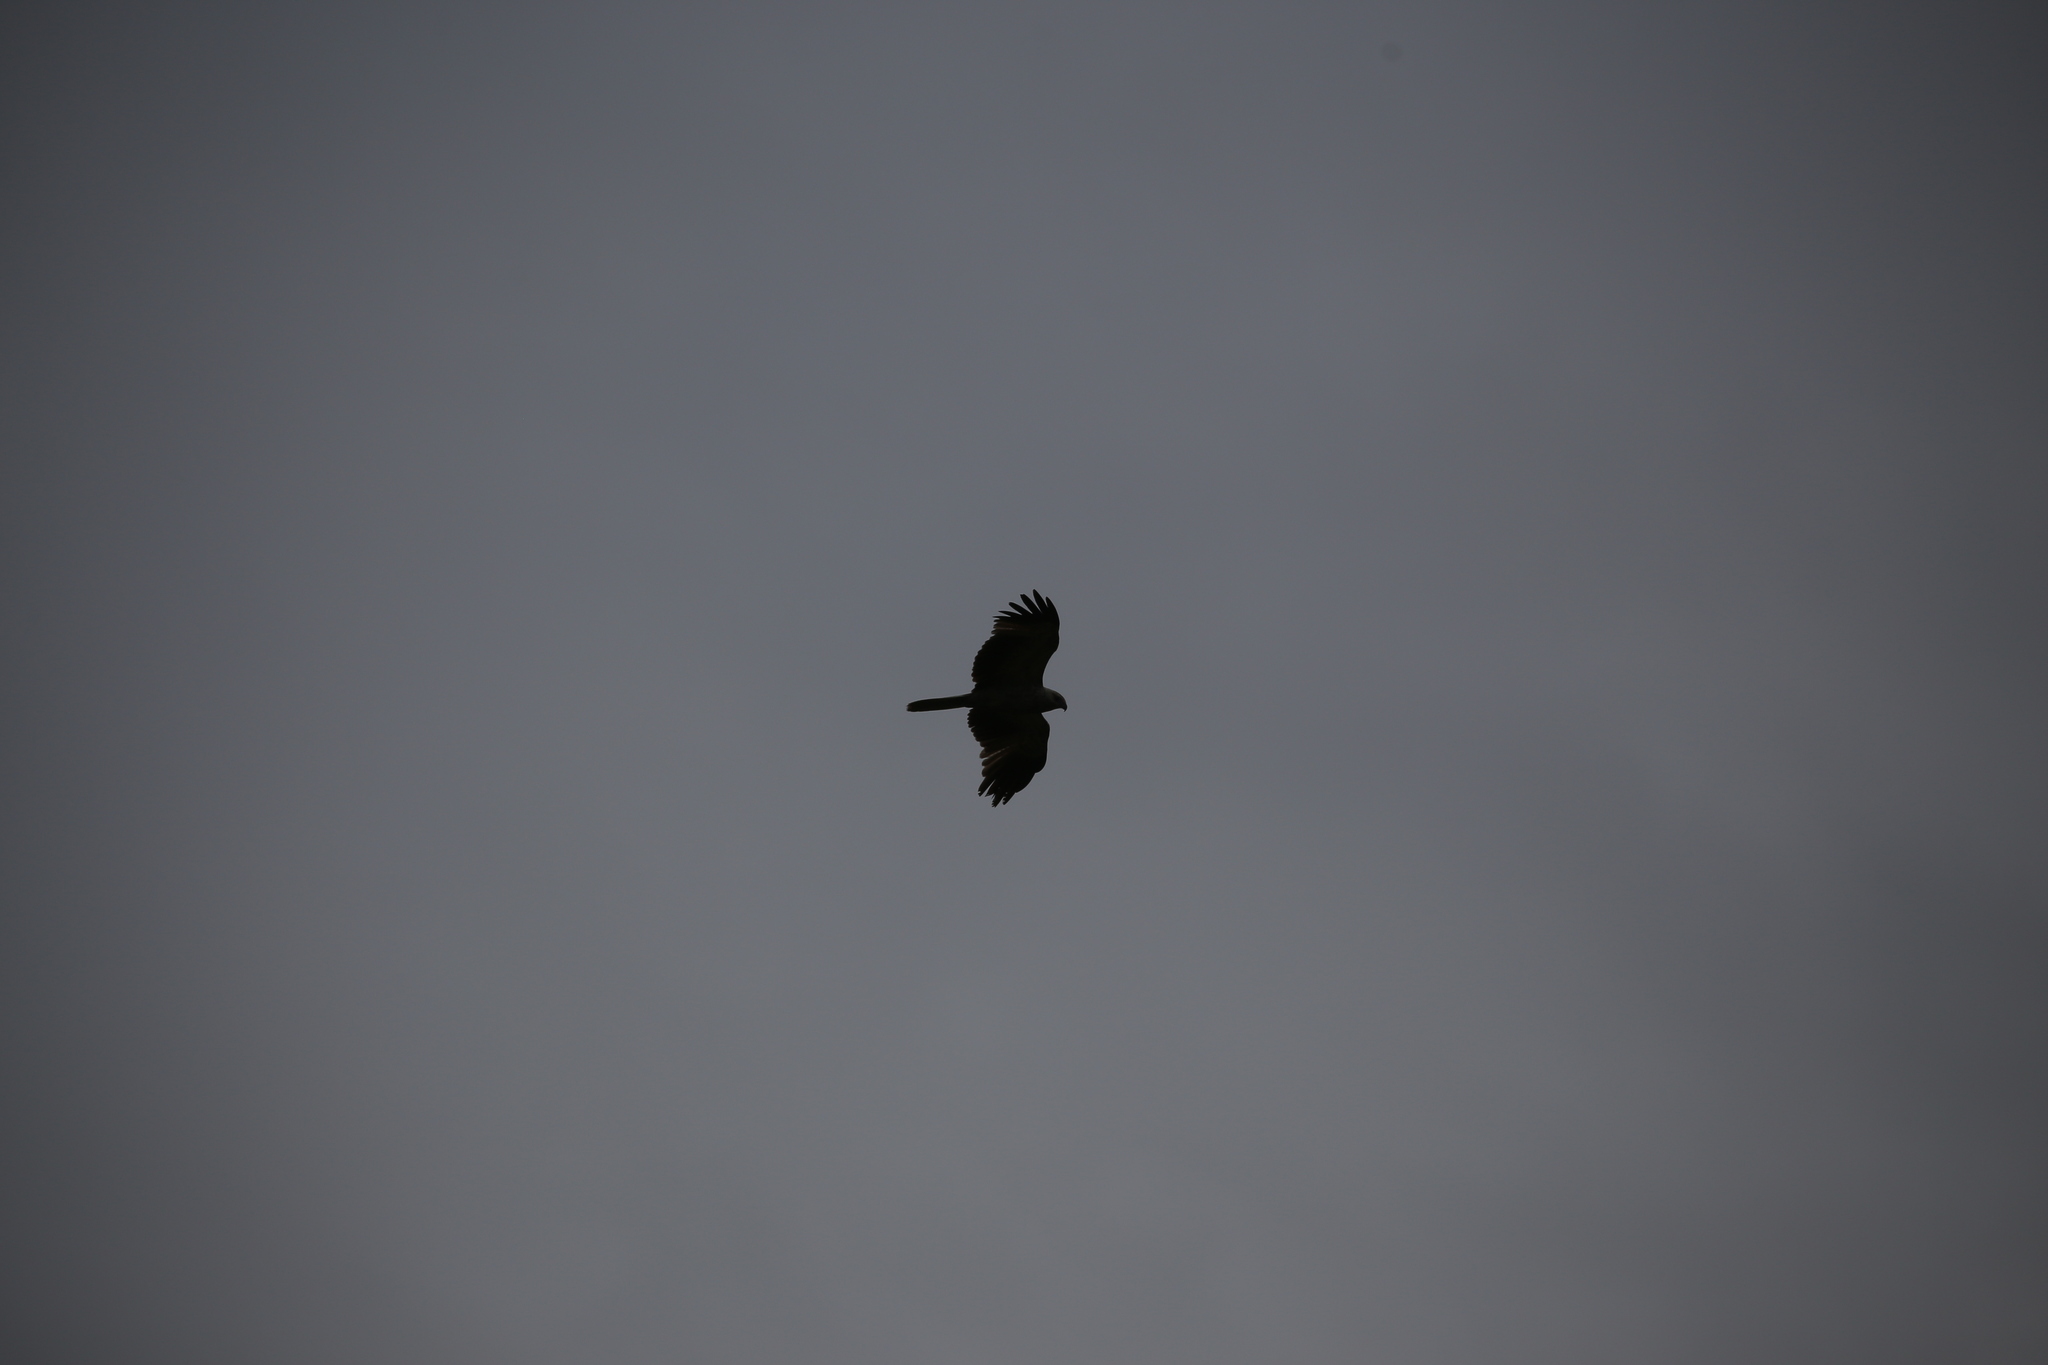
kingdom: Animalia
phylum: Chordata
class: Aves
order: Accipitriformes
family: Accipitridae
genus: Haliastur
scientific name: Haliastur sphenurus
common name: Whistling kite
